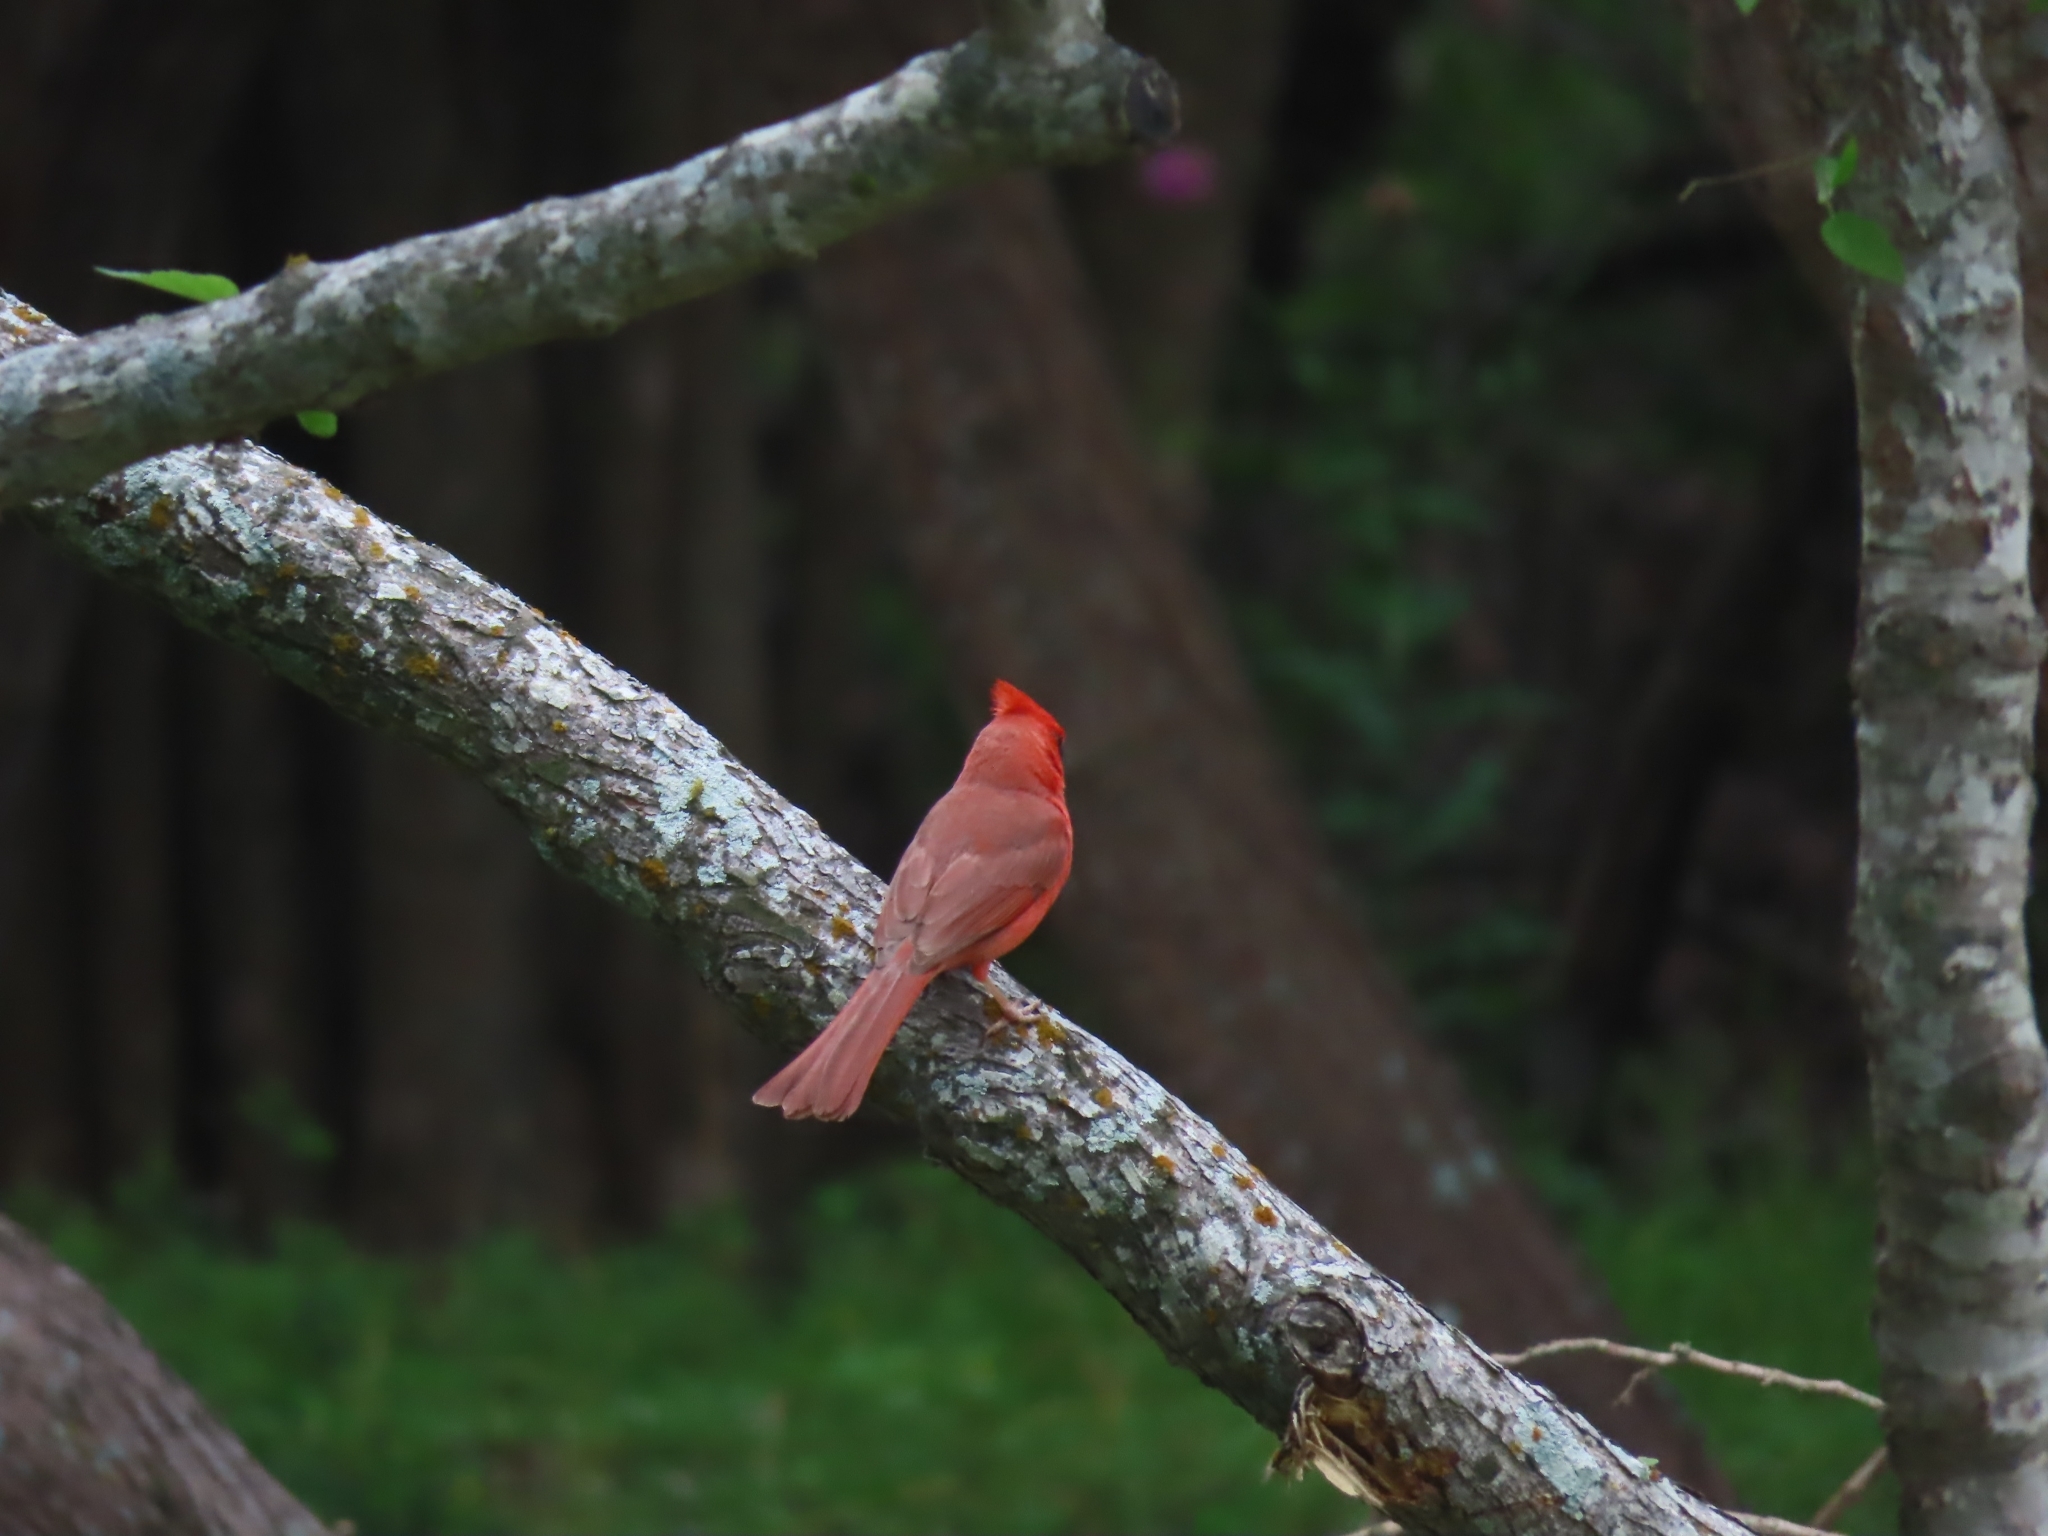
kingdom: Animalia
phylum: Chordata
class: Aves
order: Passeriformes
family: Cardinalidae
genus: Cardinalis
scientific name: Cardinalis cardinalis
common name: Northern cardinal
